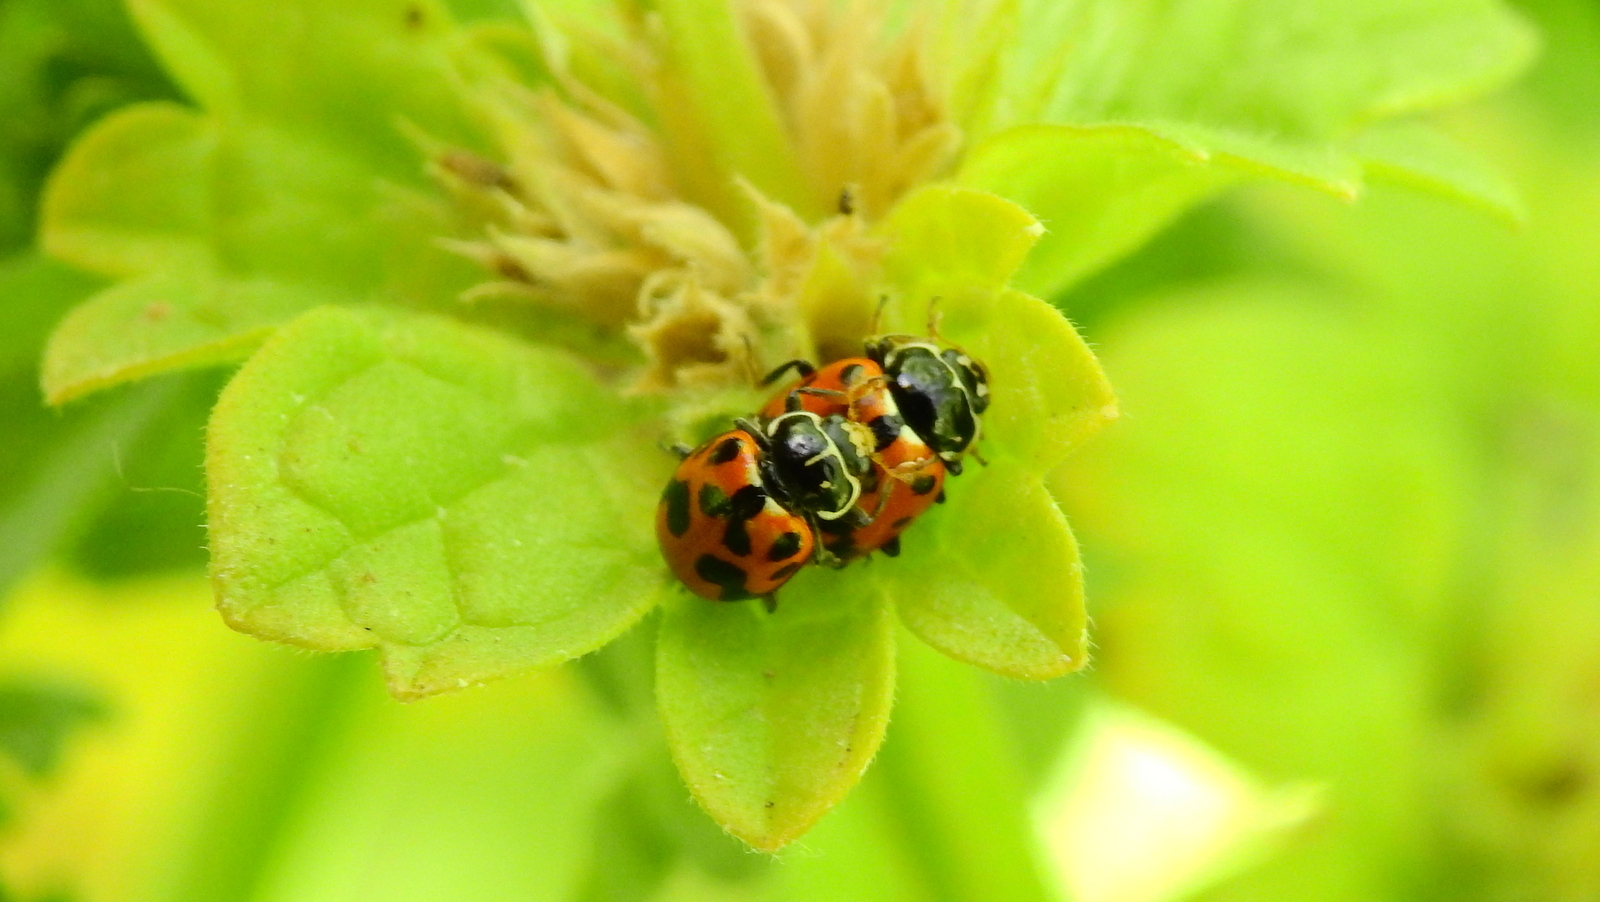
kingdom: Animalia
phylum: Arthropoda
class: Insecta
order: Coleoptera
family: Coccinellidae
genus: Hippodamia
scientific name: Hippodamia variegata
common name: Ladybird beetle
